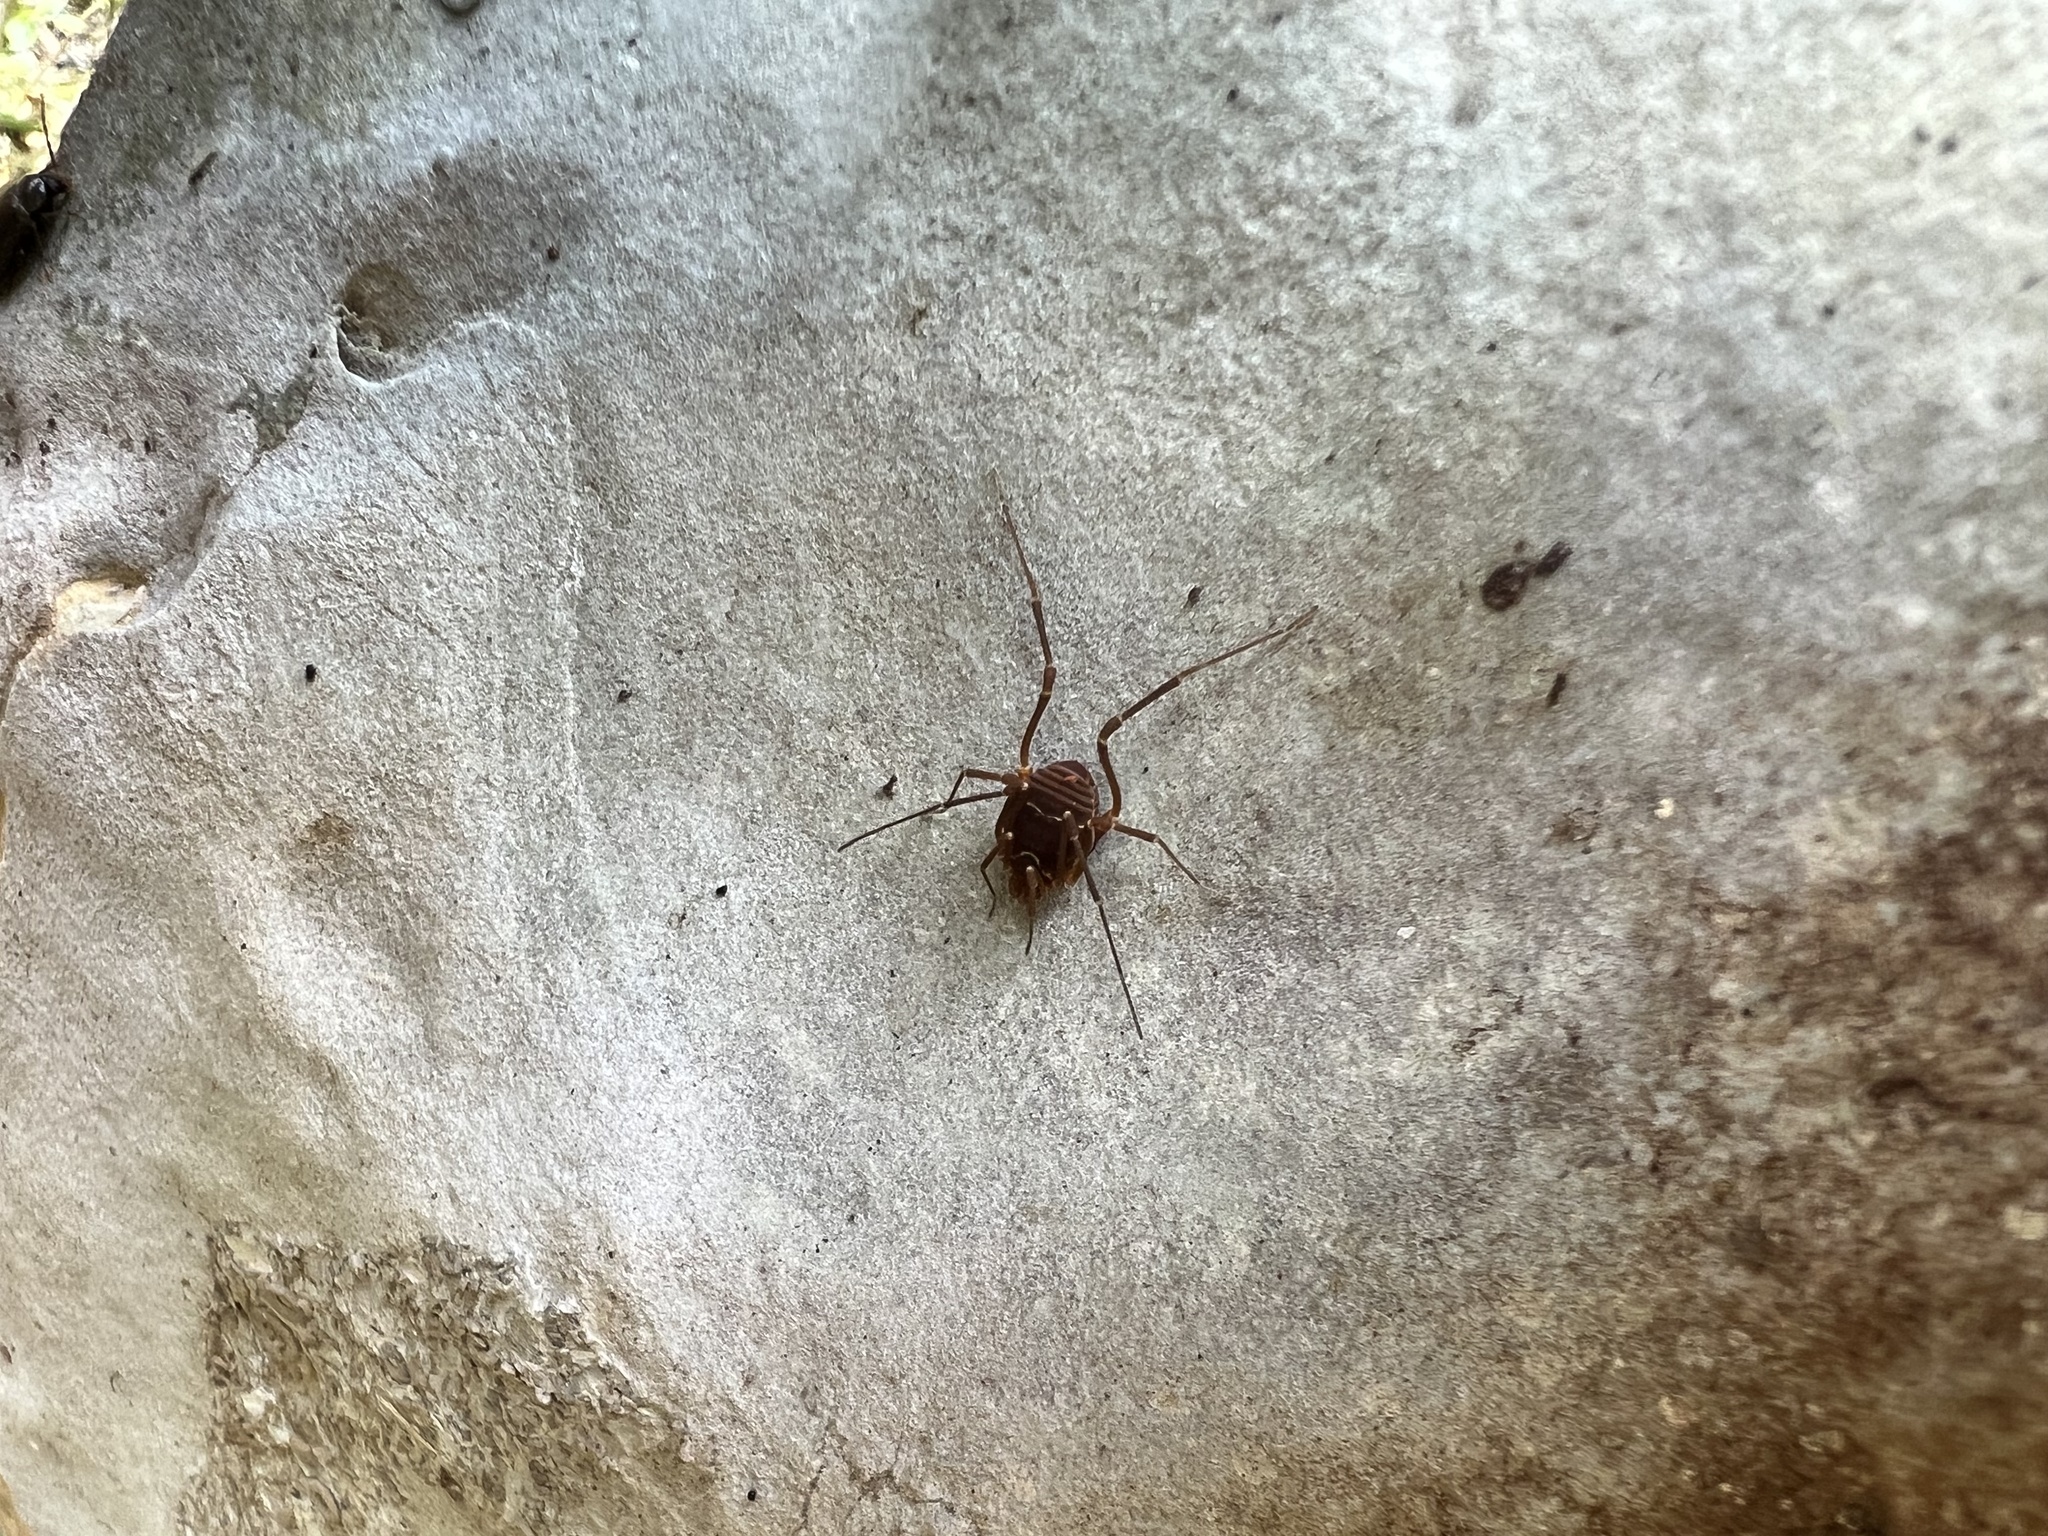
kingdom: Animalia
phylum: Arthropoda
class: Arachnida
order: Opiliones
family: Cosmetidae
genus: Libitioides
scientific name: Libitioides sayi
